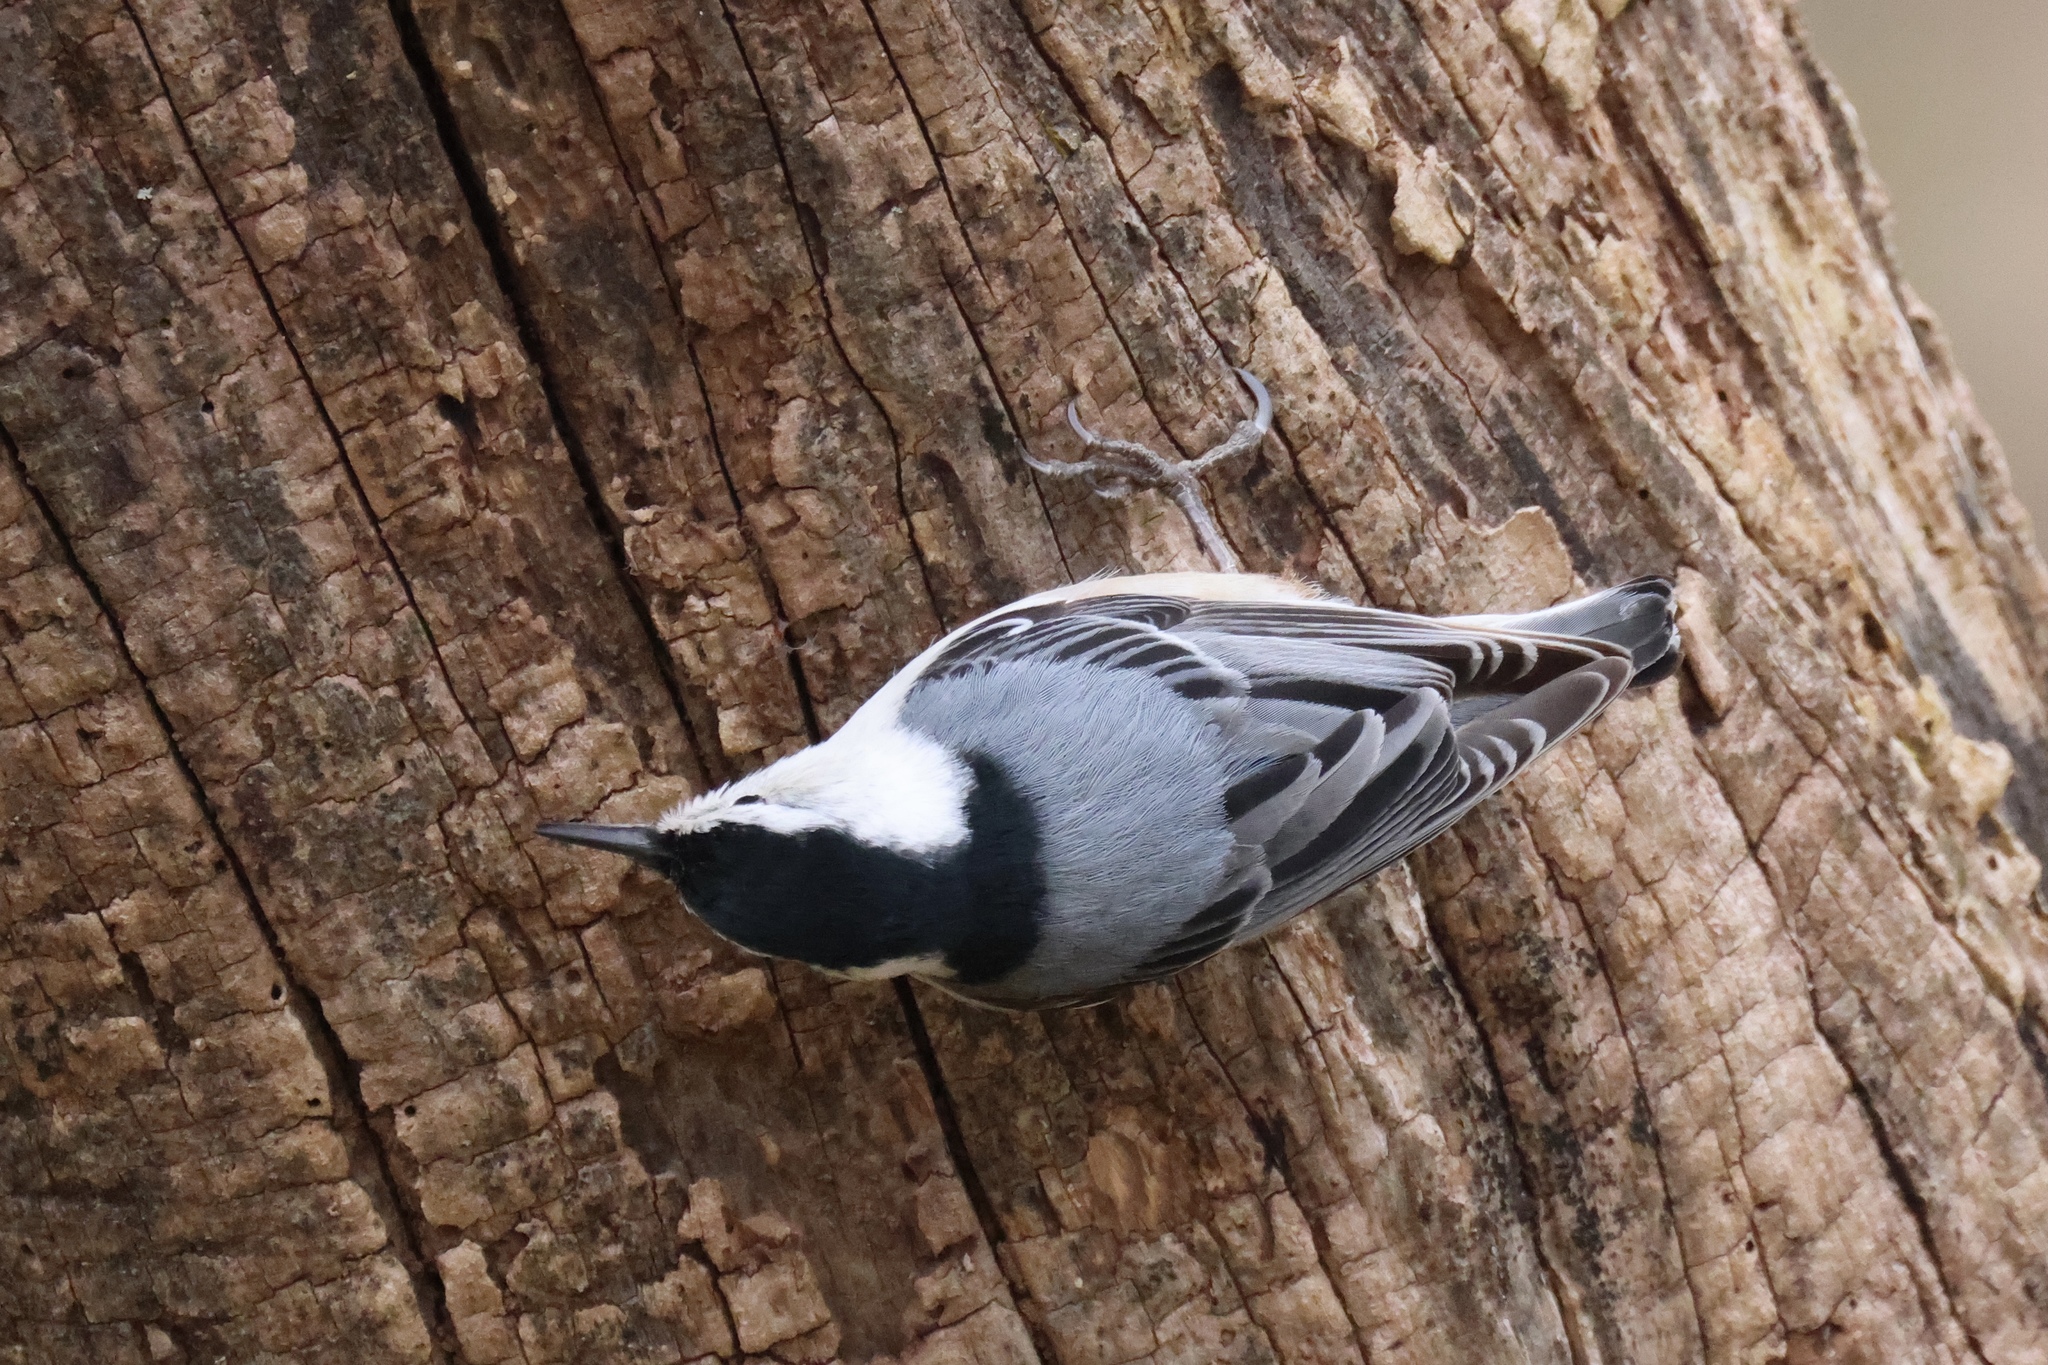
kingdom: Animalia
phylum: Chordata
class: Aves
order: Passeriformes
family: Sittidae
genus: Sitta
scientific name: Sitta carolinensis
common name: White-breasted nuthatch
